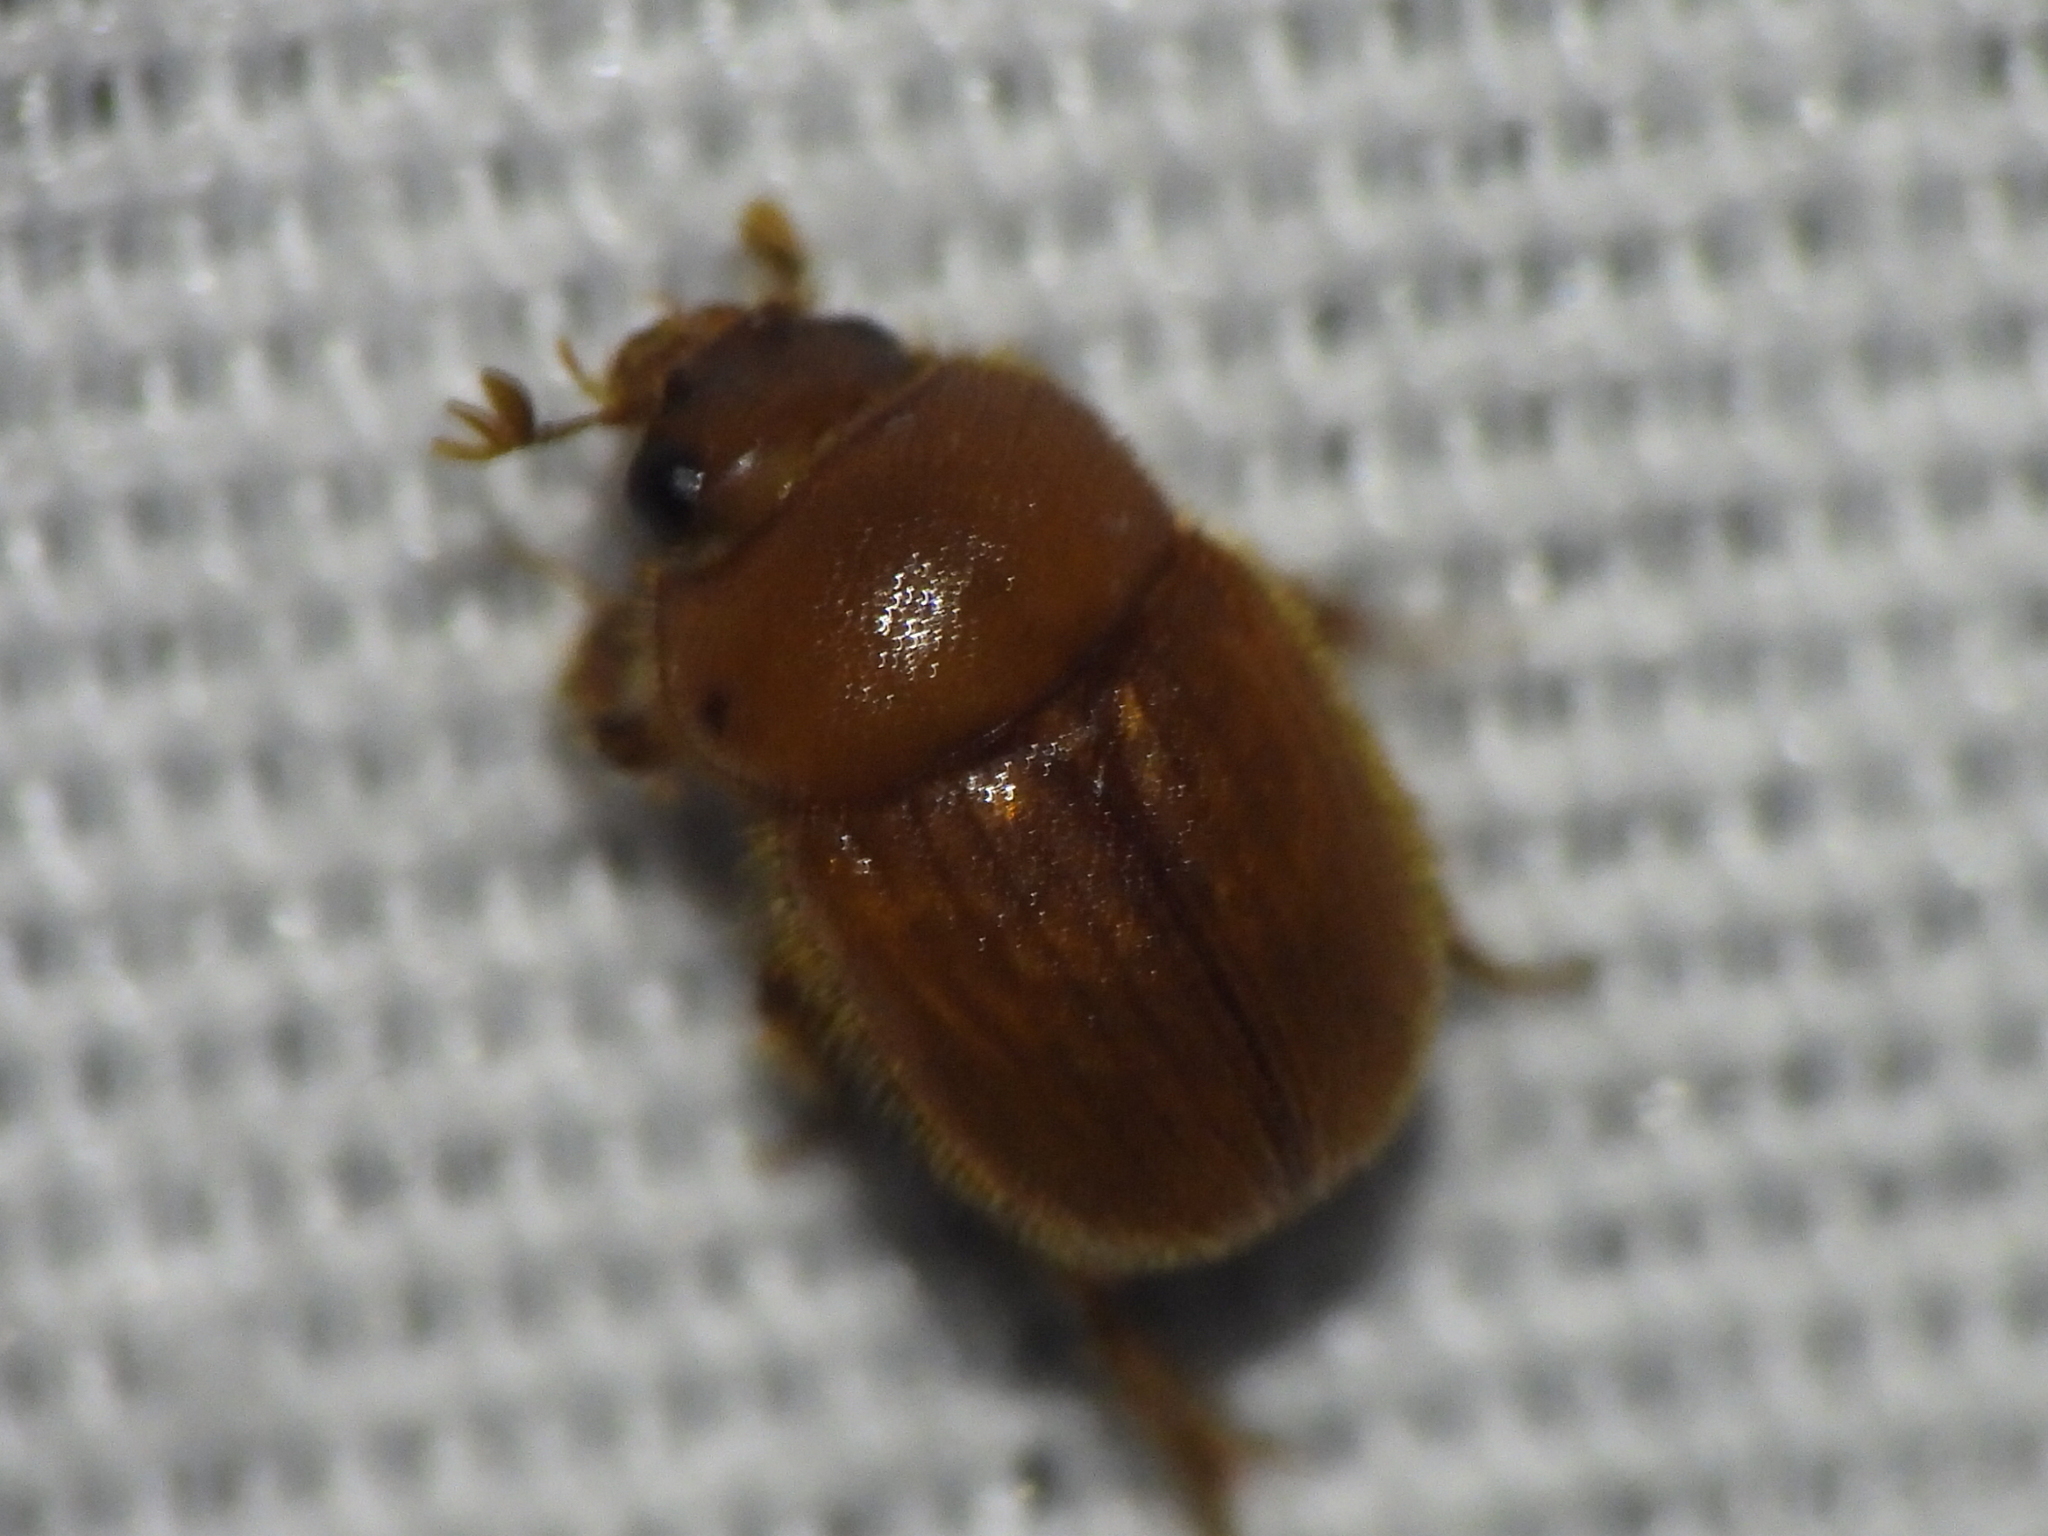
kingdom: Animalia
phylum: Arthropoda
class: Insecta
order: Coleoptera
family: Ochodaeidae
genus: Parochodaeus
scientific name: Parochodaeus biarmatus
